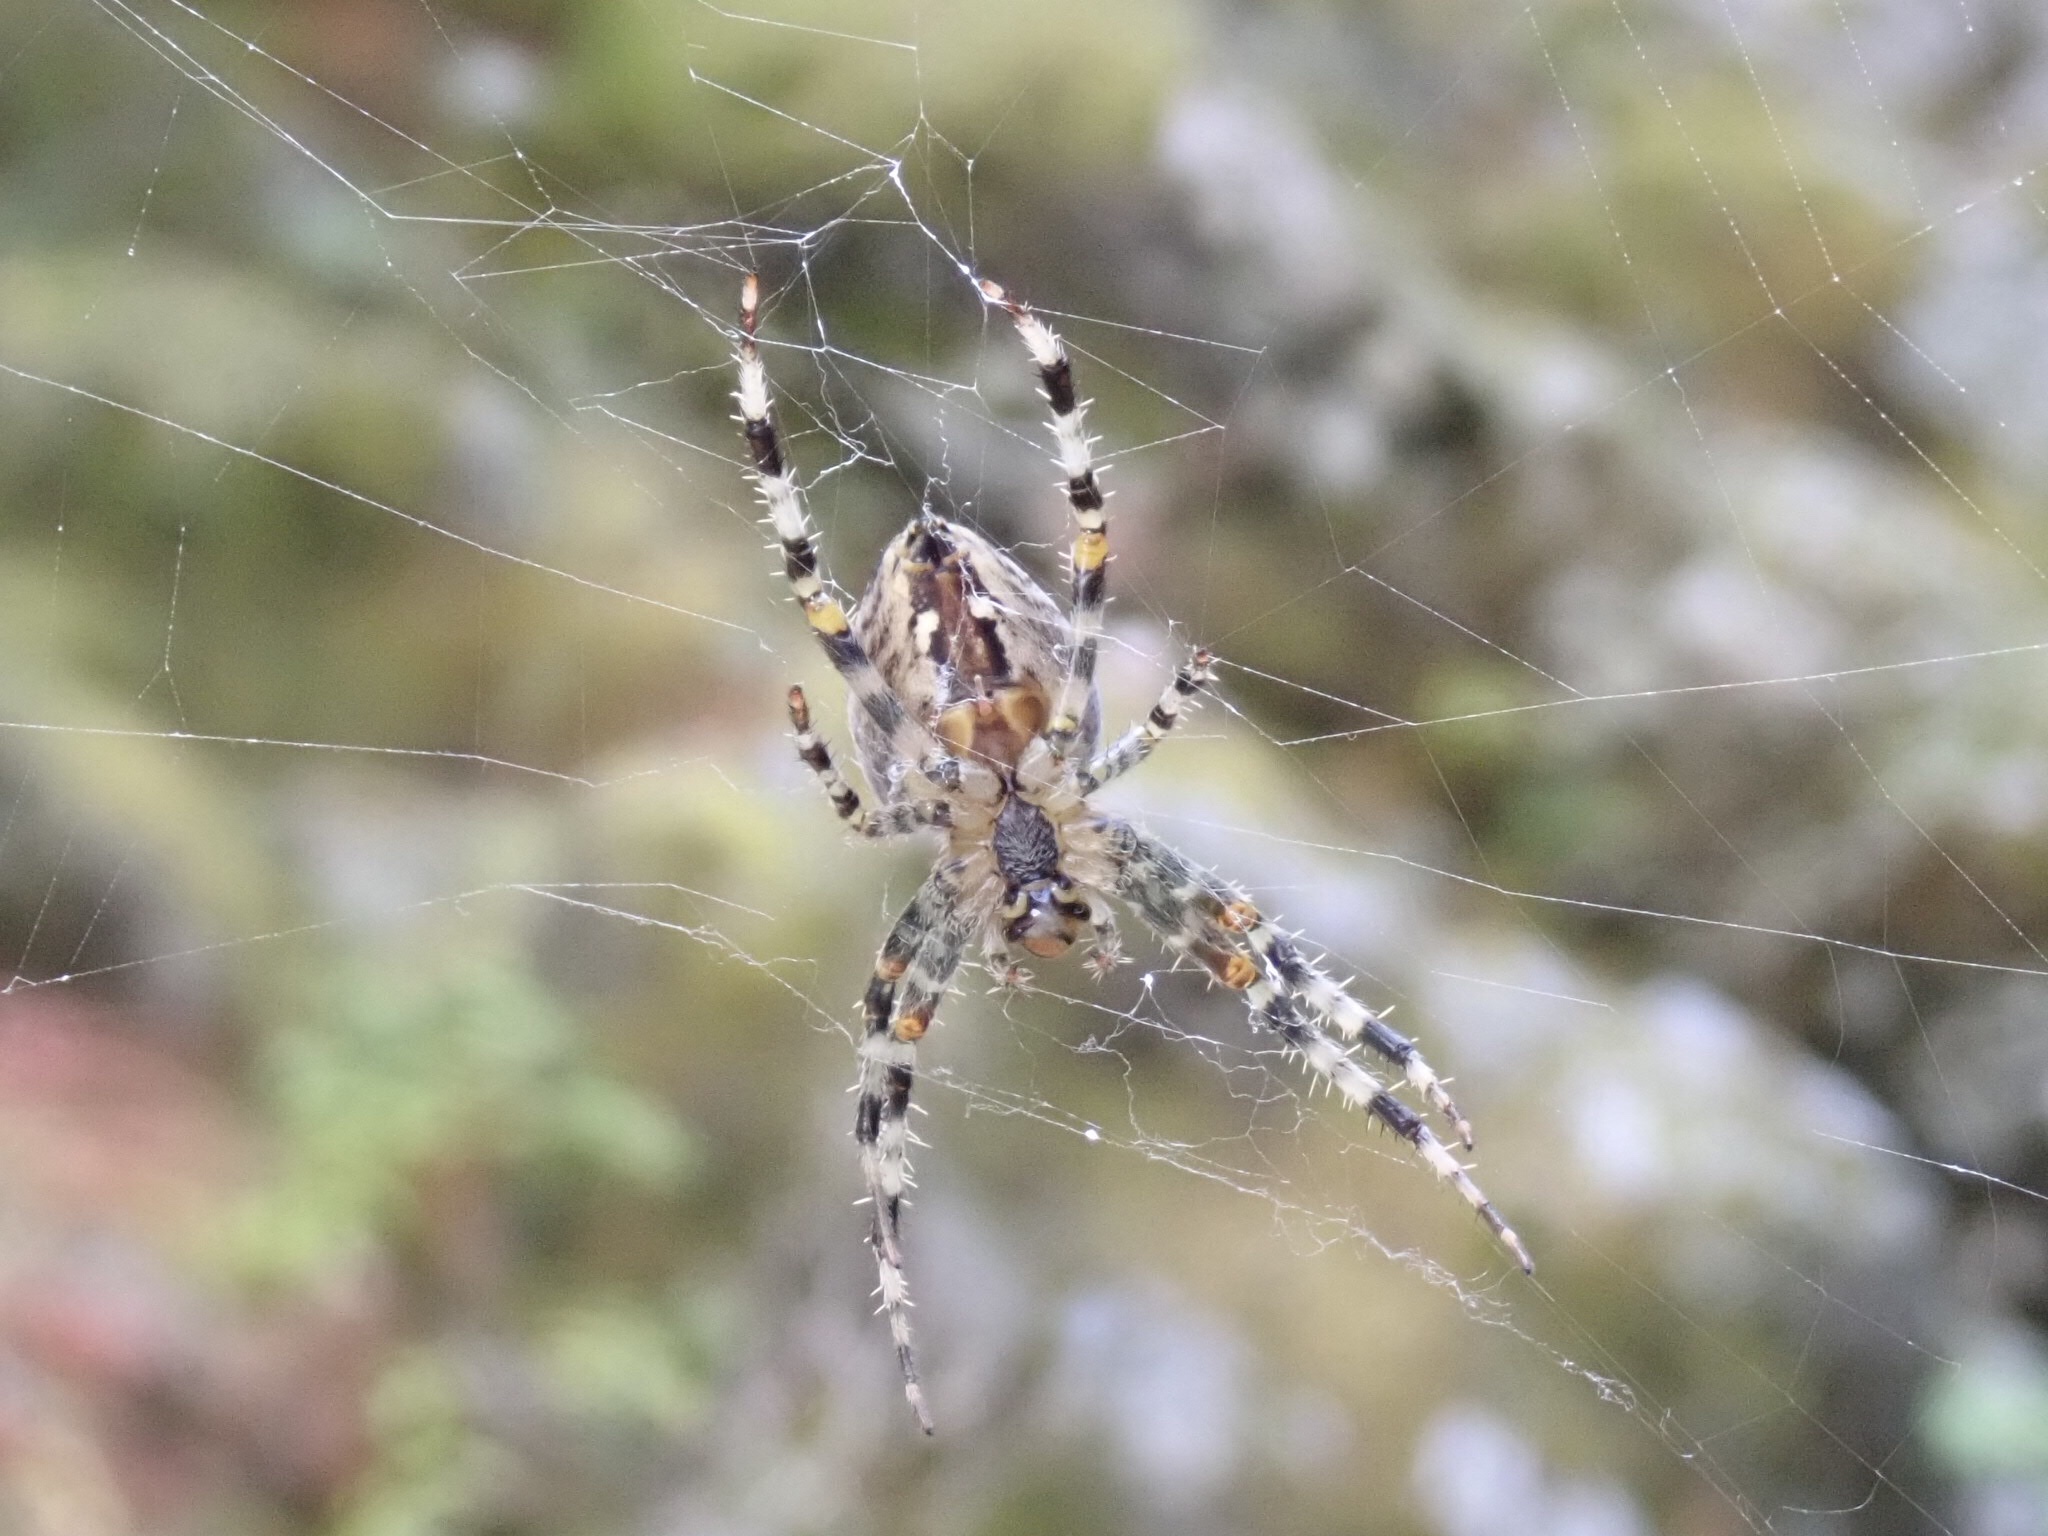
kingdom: Animalia
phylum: Arthropoda
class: Arachnida
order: Araneae
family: Araneidae
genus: Araneus
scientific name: Araneus diadematus
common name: Cross orbweaver
